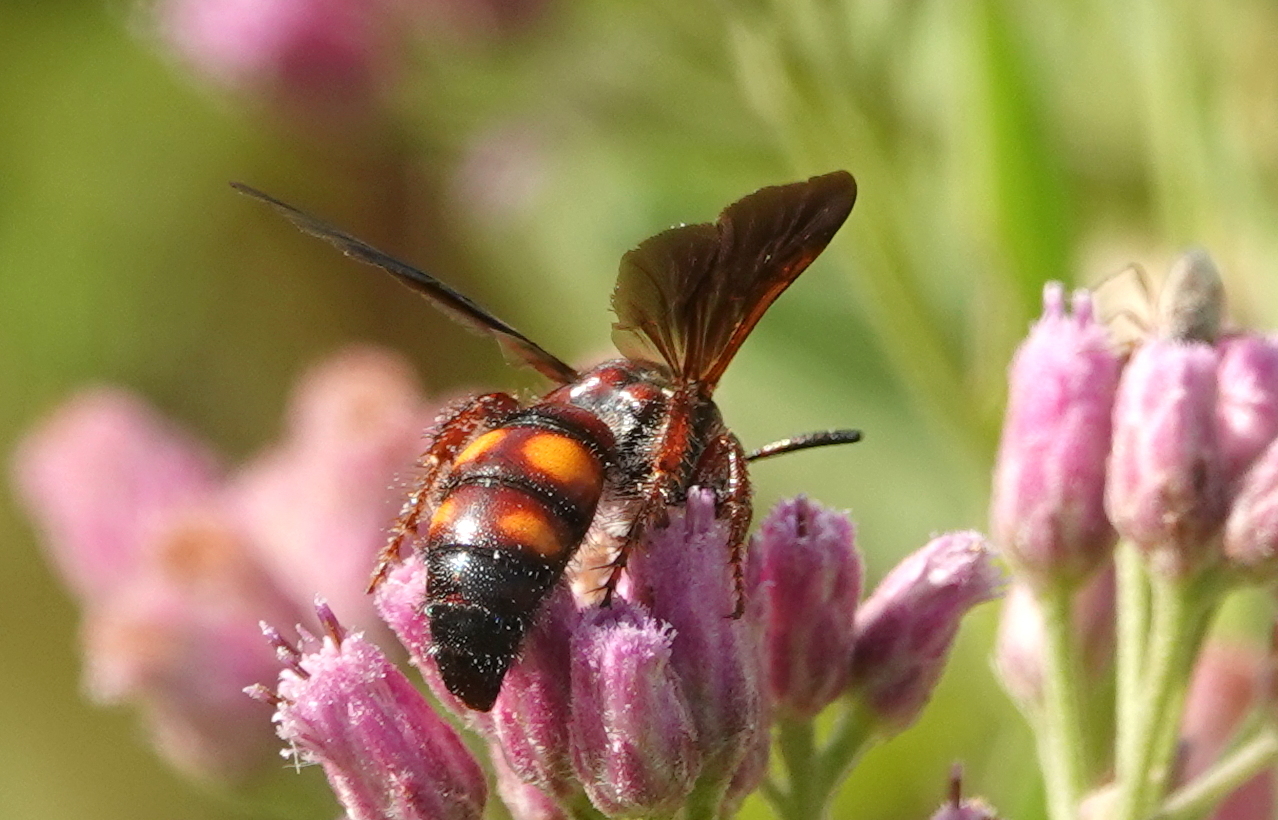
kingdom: Animalia
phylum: Arthropoda
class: Insecta
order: Hymenoptera
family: Scoliidae
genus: Scolia
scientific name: Scolia nobilitata
